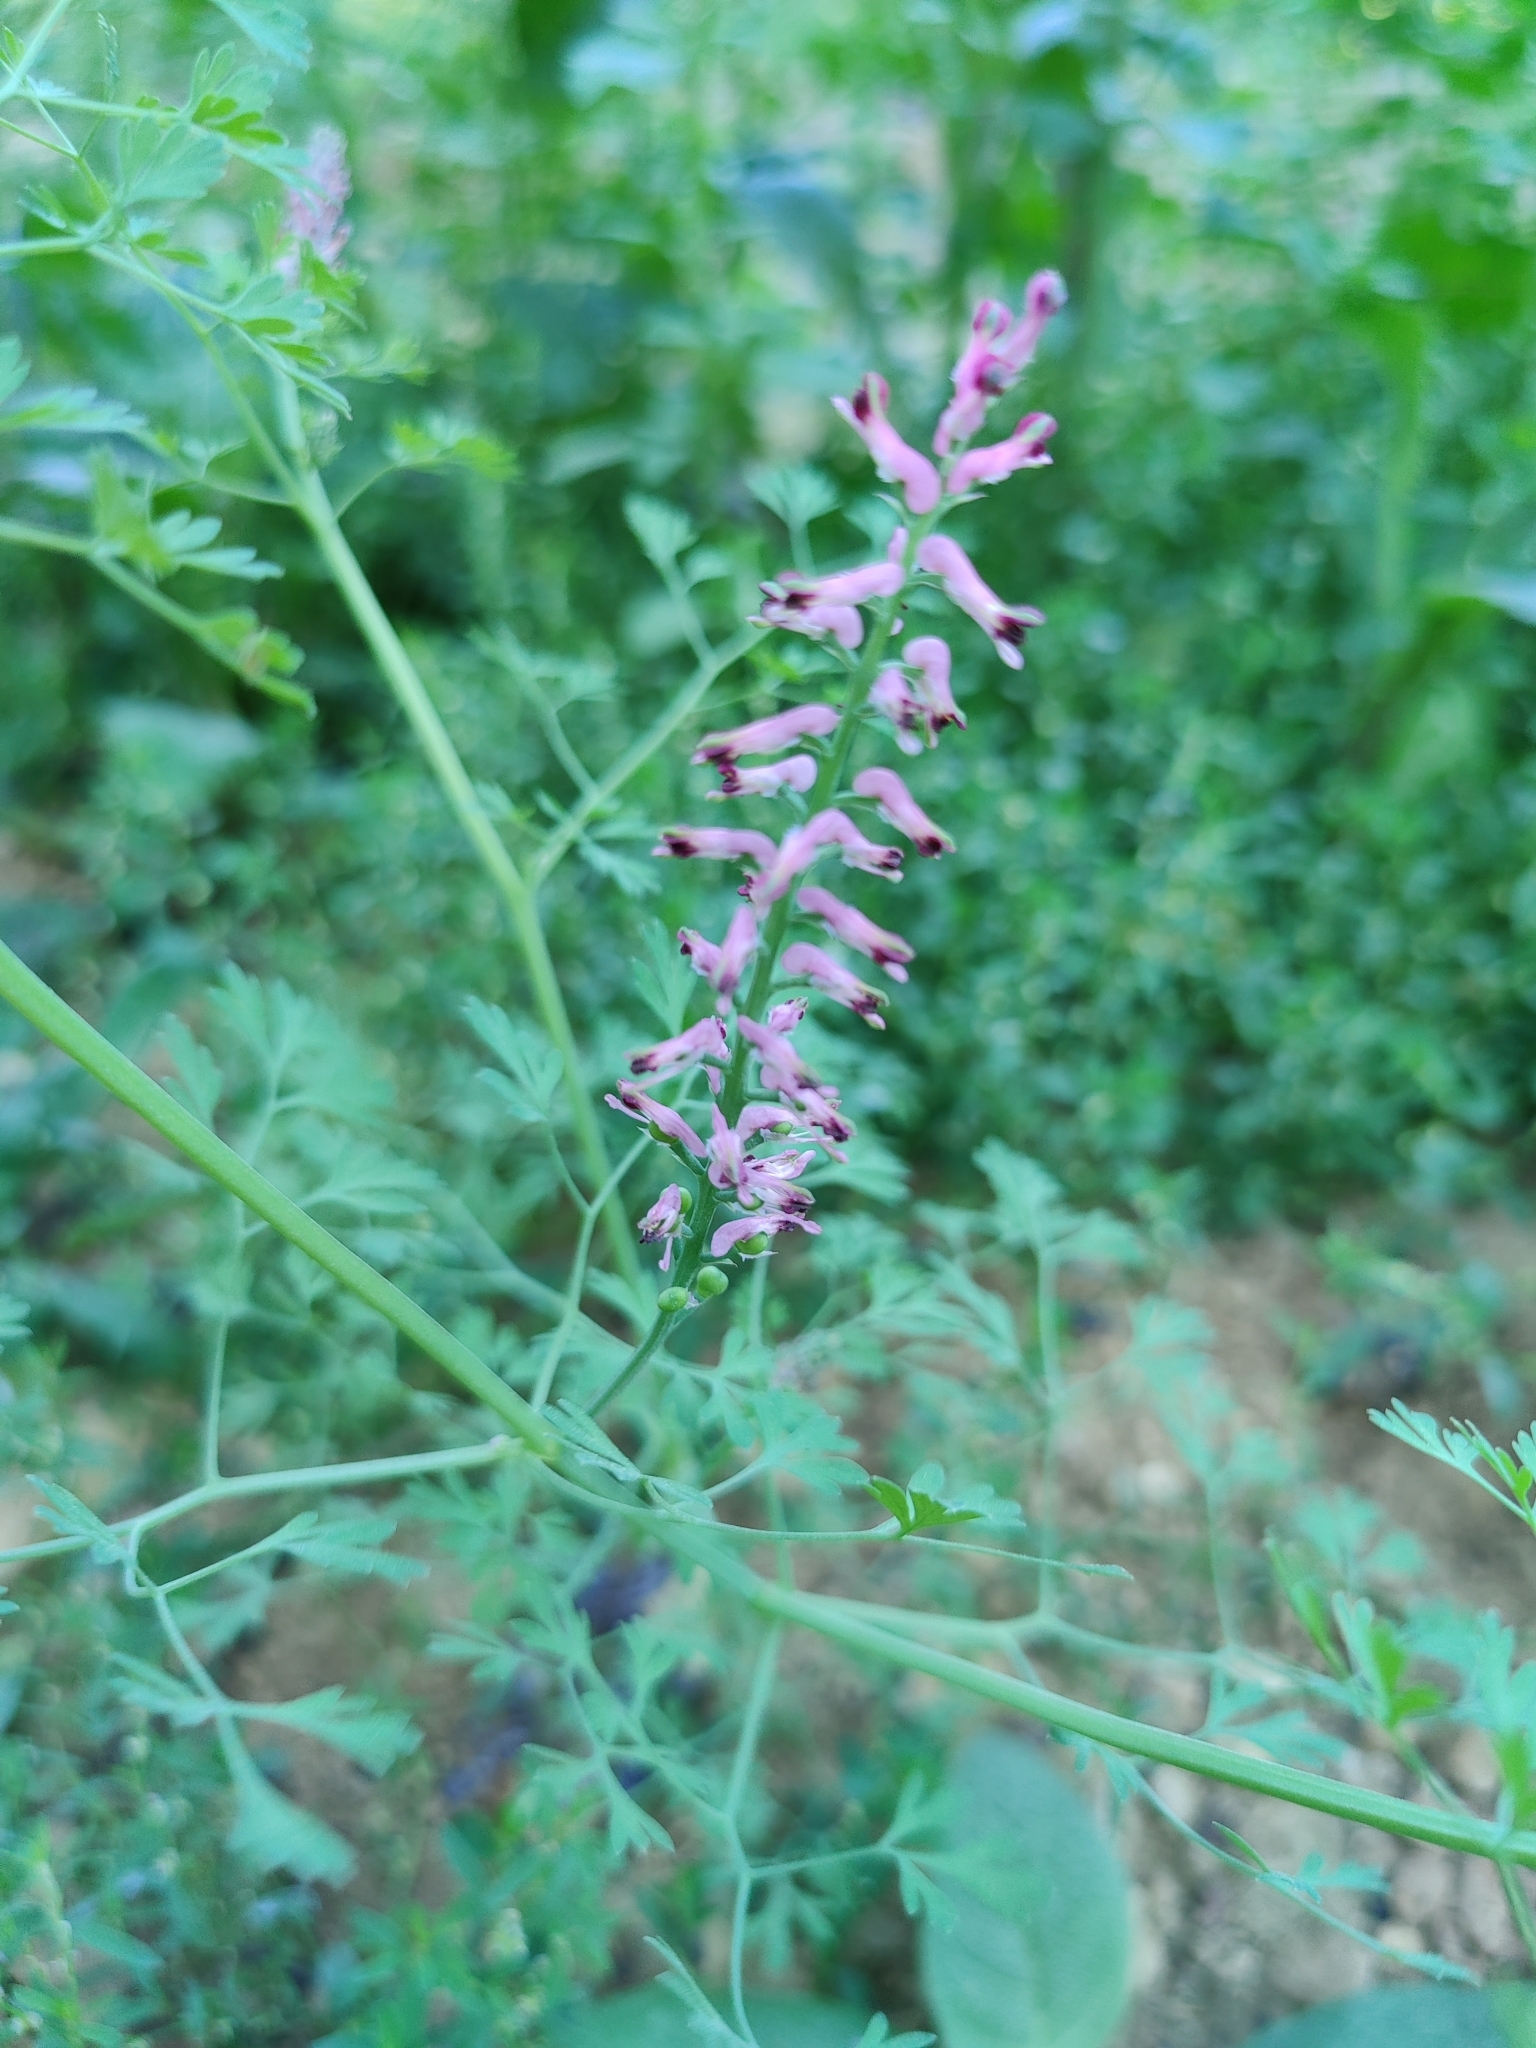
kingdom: Plantae
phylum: Tracheophyta
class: Magnoliopsida
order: Ranunculales
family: Papaveraceae
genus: Fumaria
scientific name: Fumaria officinalis
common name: Common fumitory
